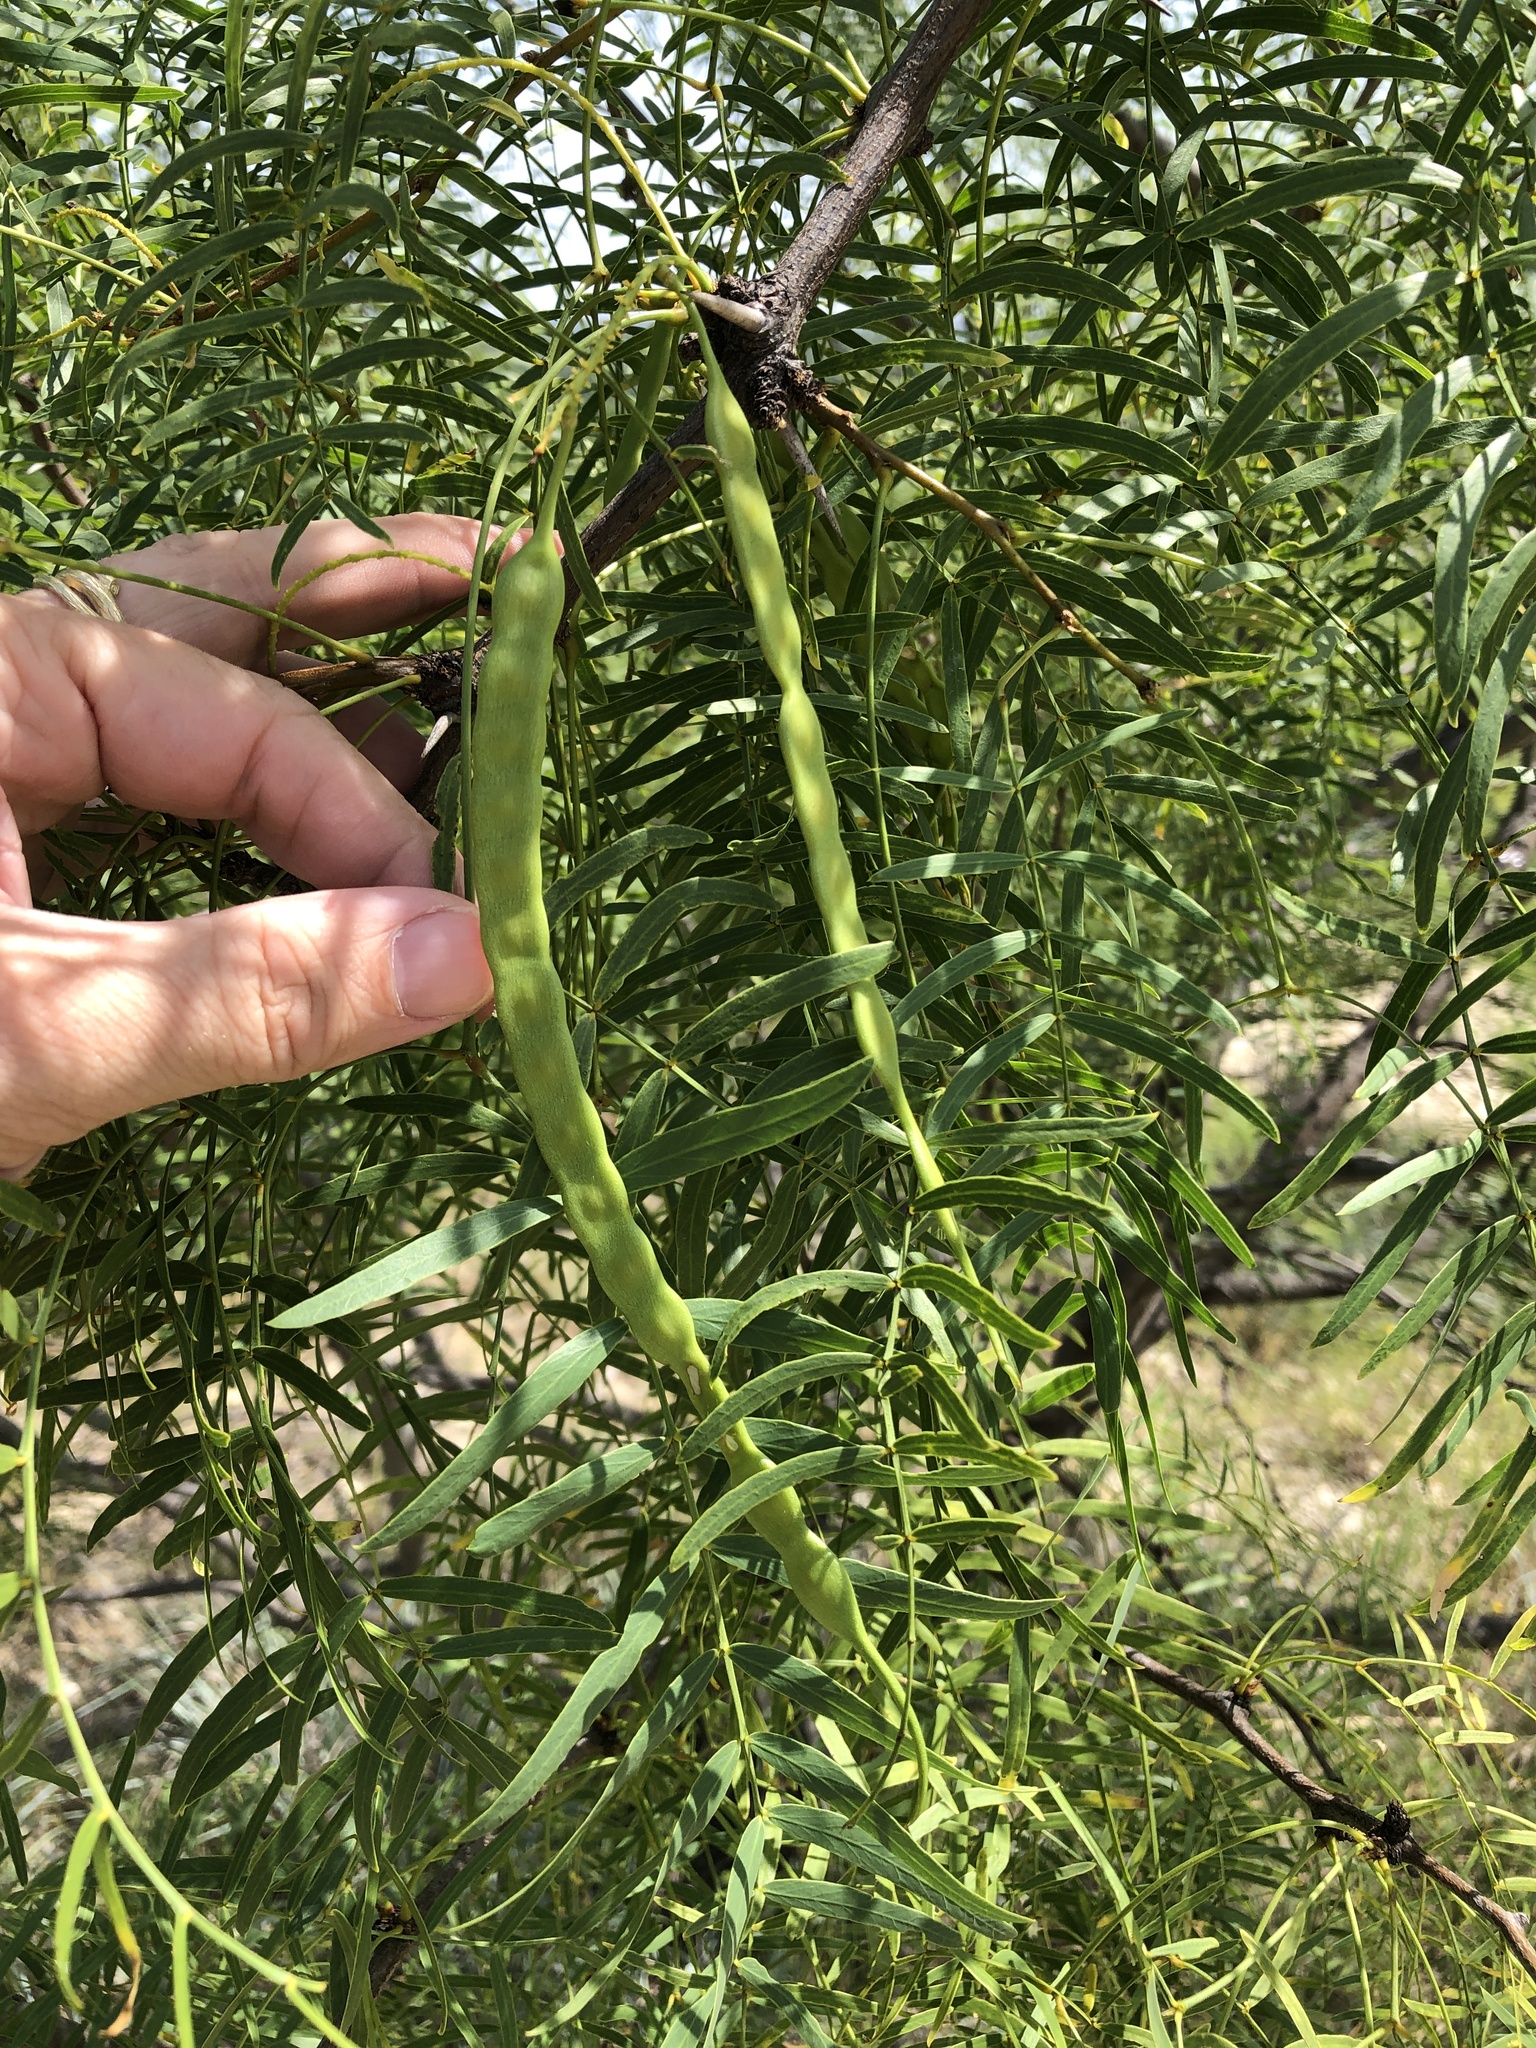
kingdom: Plantae
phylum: Tracheophyta
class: Magnoliopsida
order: Fabales
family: Fabaceae
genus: Prosopis
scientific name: Prosopis glandulosa
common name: Honey mesquite
